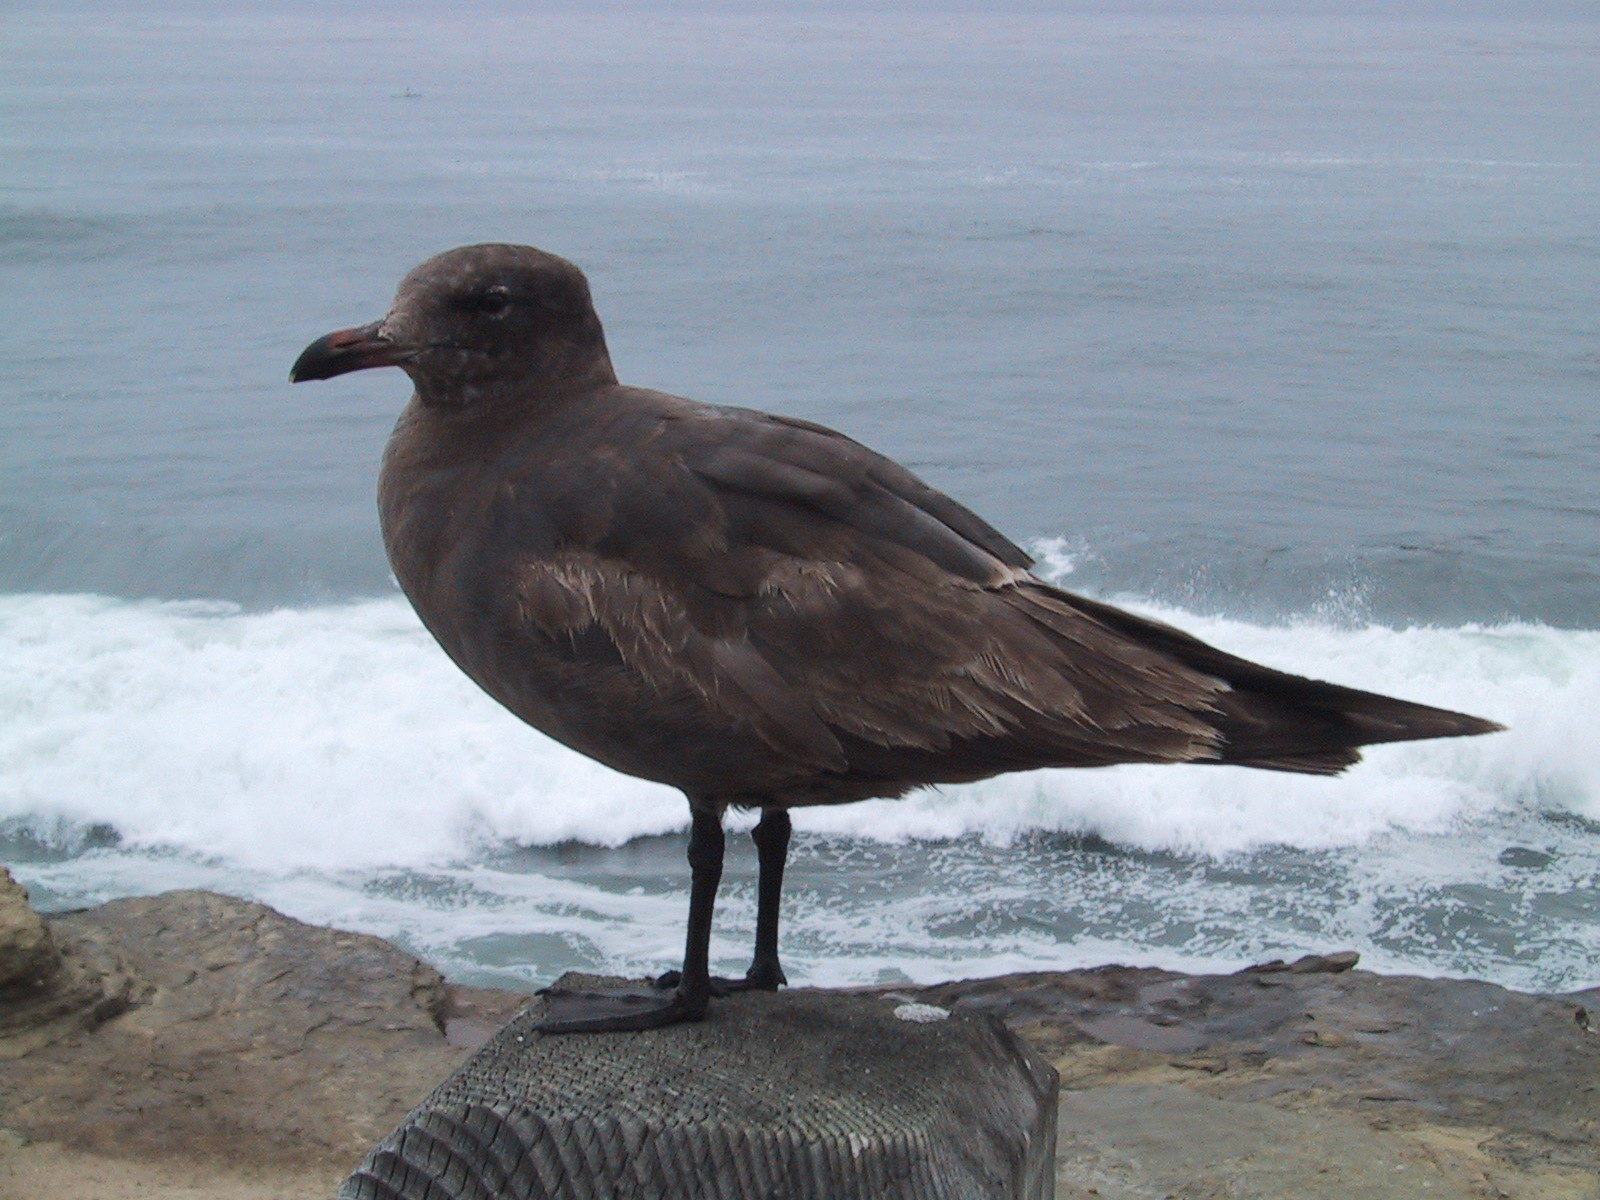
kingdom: Animalia
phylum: Chordata
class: Aves
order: Charadriiformes
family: Laridae
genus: Larus
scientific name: Larus heermanni
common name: Heermann's gull
